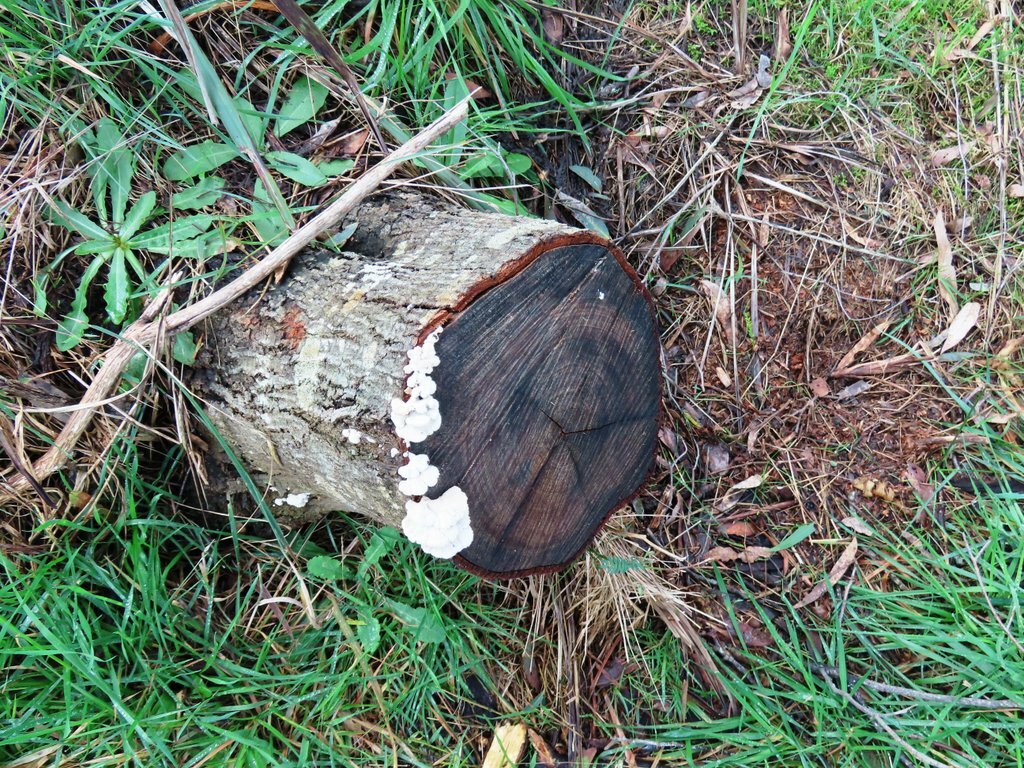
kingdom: Fungi
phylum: Basidiomycota
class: Agaricomycetes
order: Agaricales
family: Schizophyllaceae
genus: Schizophyllum
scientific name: Schizophyllum commune
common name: Common porecrust
